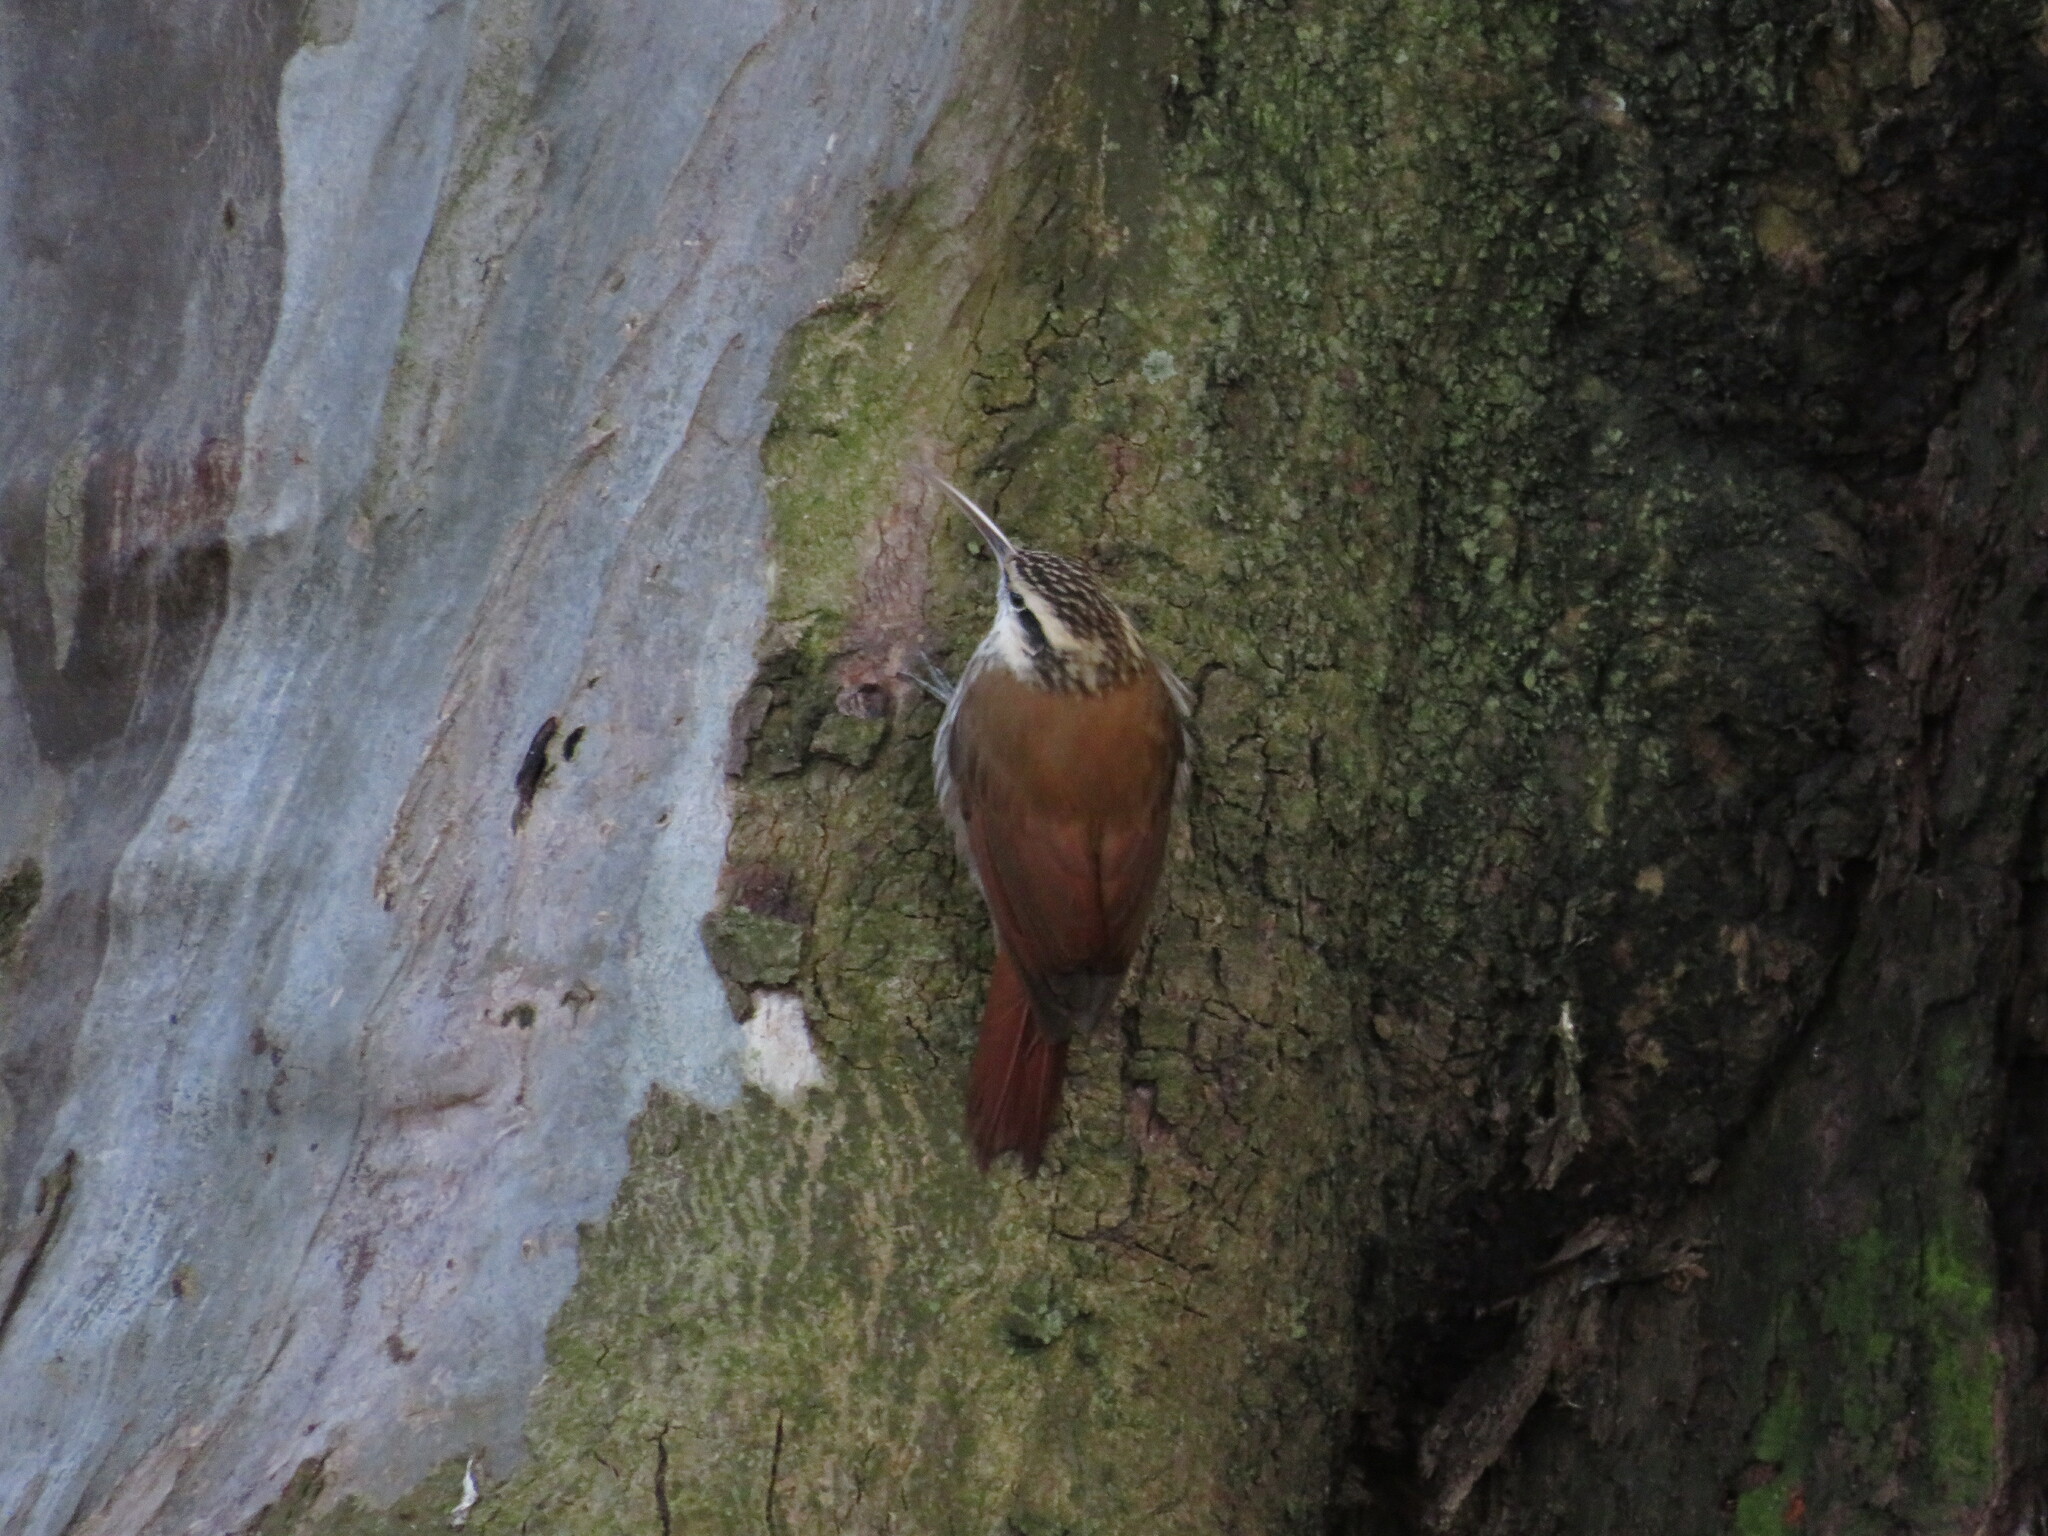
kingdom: Animalia
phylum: Chordata
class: Aves
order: Passeriformes
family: Furnariidae
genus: Lepidocolaptes
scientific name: Lepidocolaptes angustirostris
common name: Narrow-billed woodcreeper
